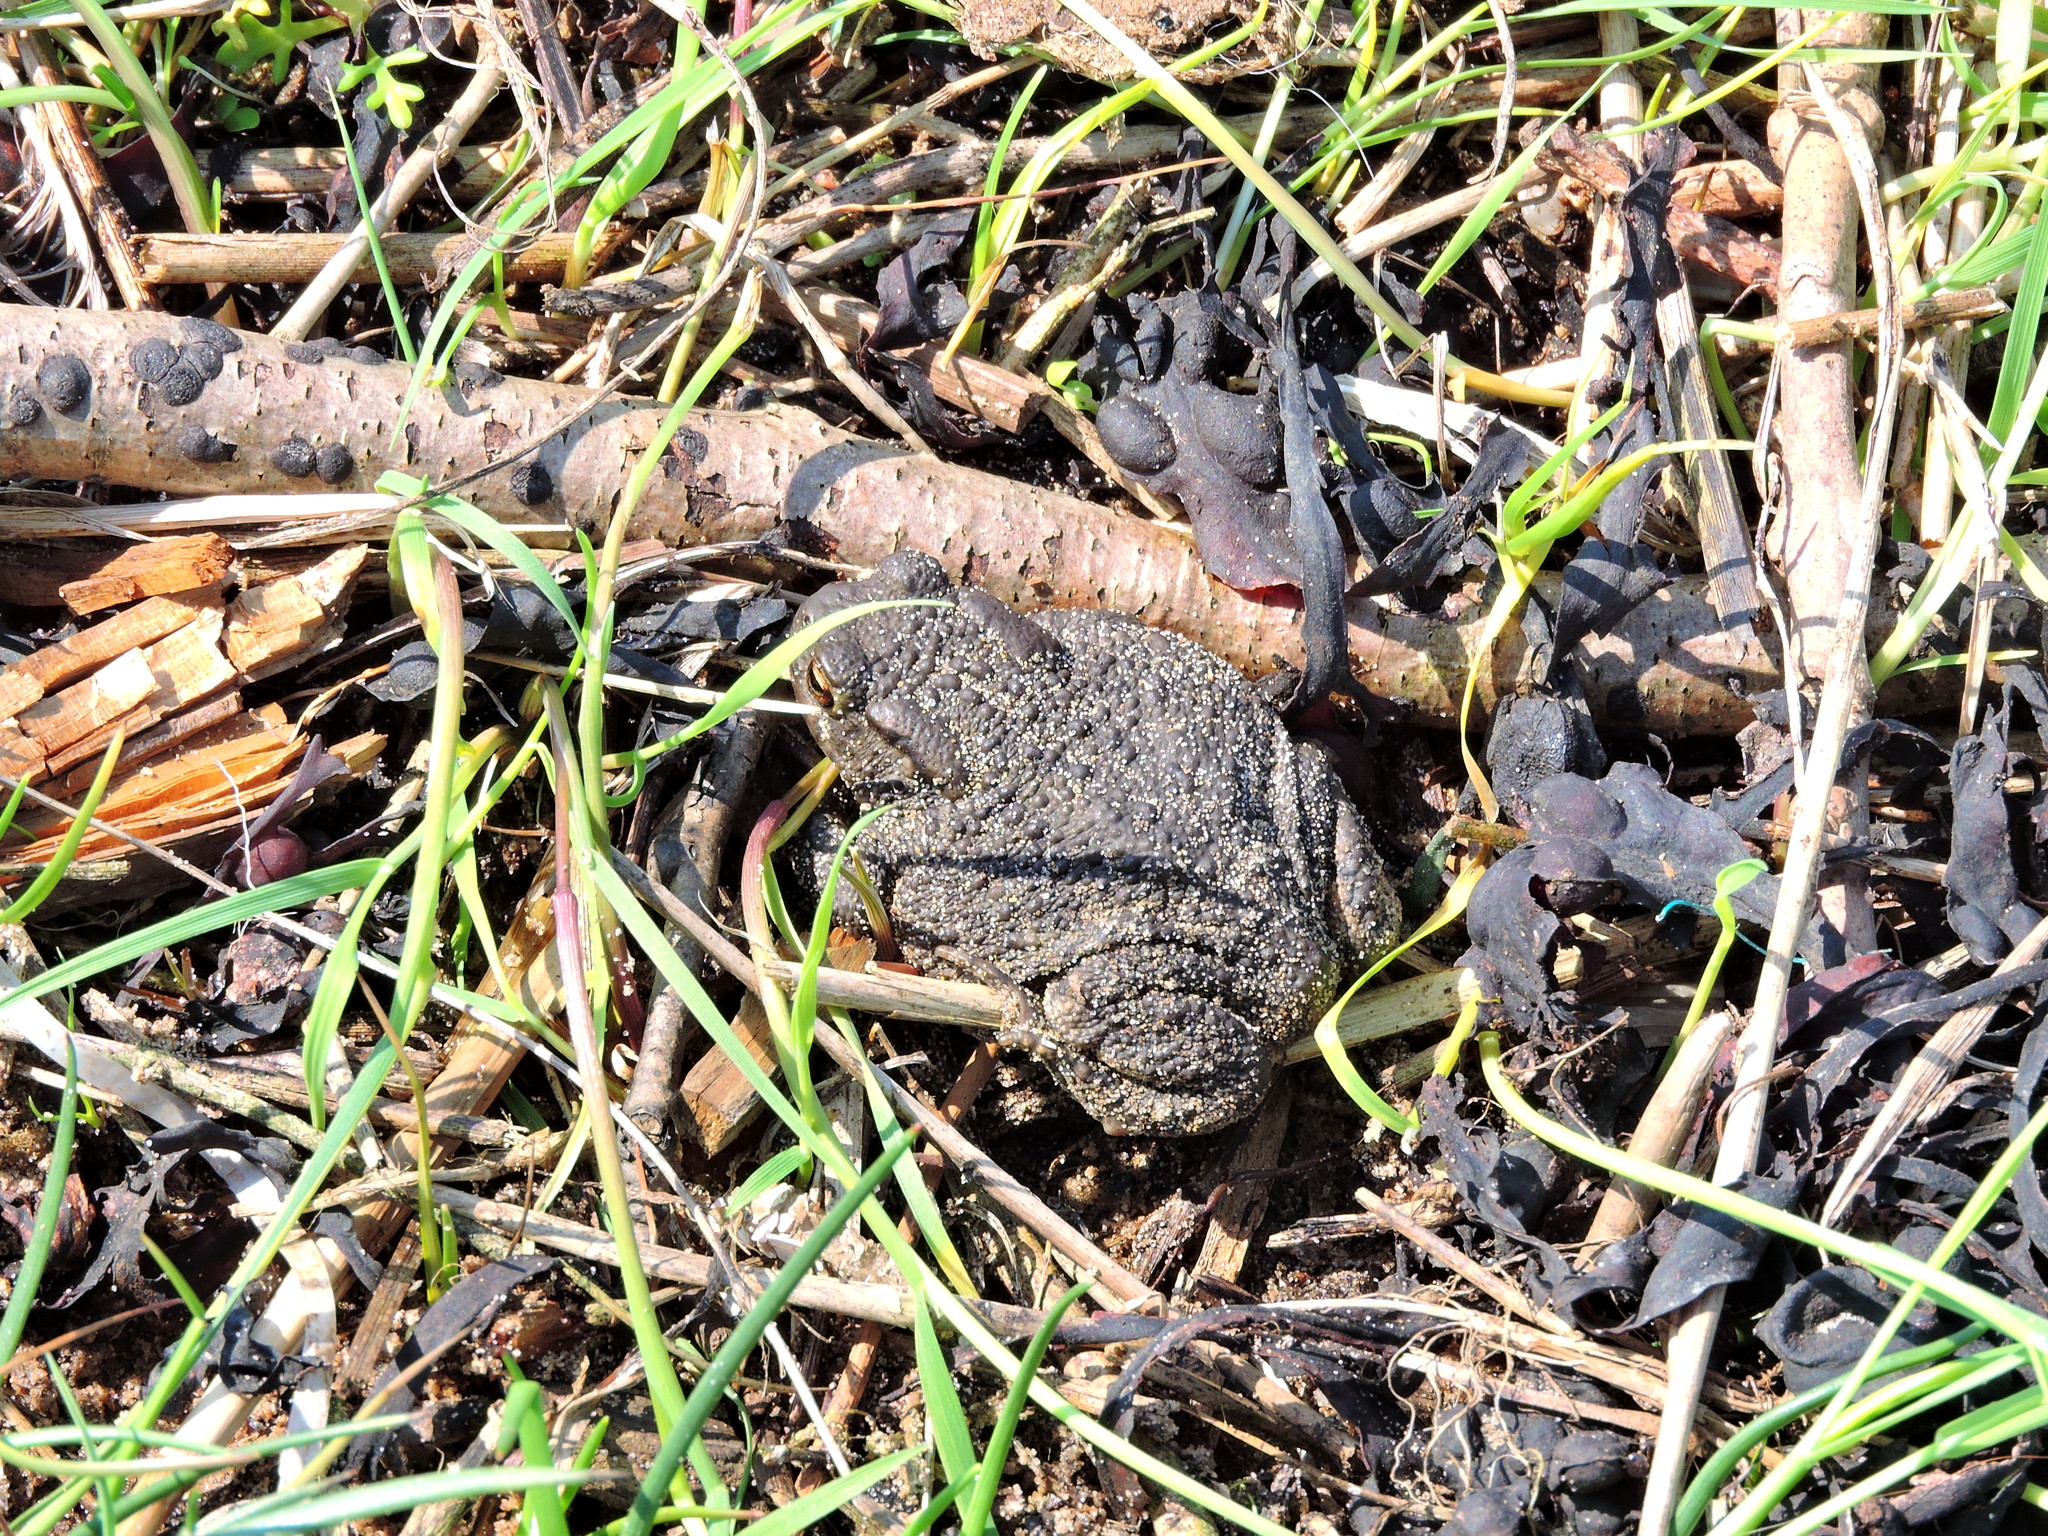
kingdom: Animalia
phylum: Chordata
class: Amphibia
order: Anura
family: Bufonidae
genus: Bufo
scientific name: Bufo bufo
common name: Common toad
